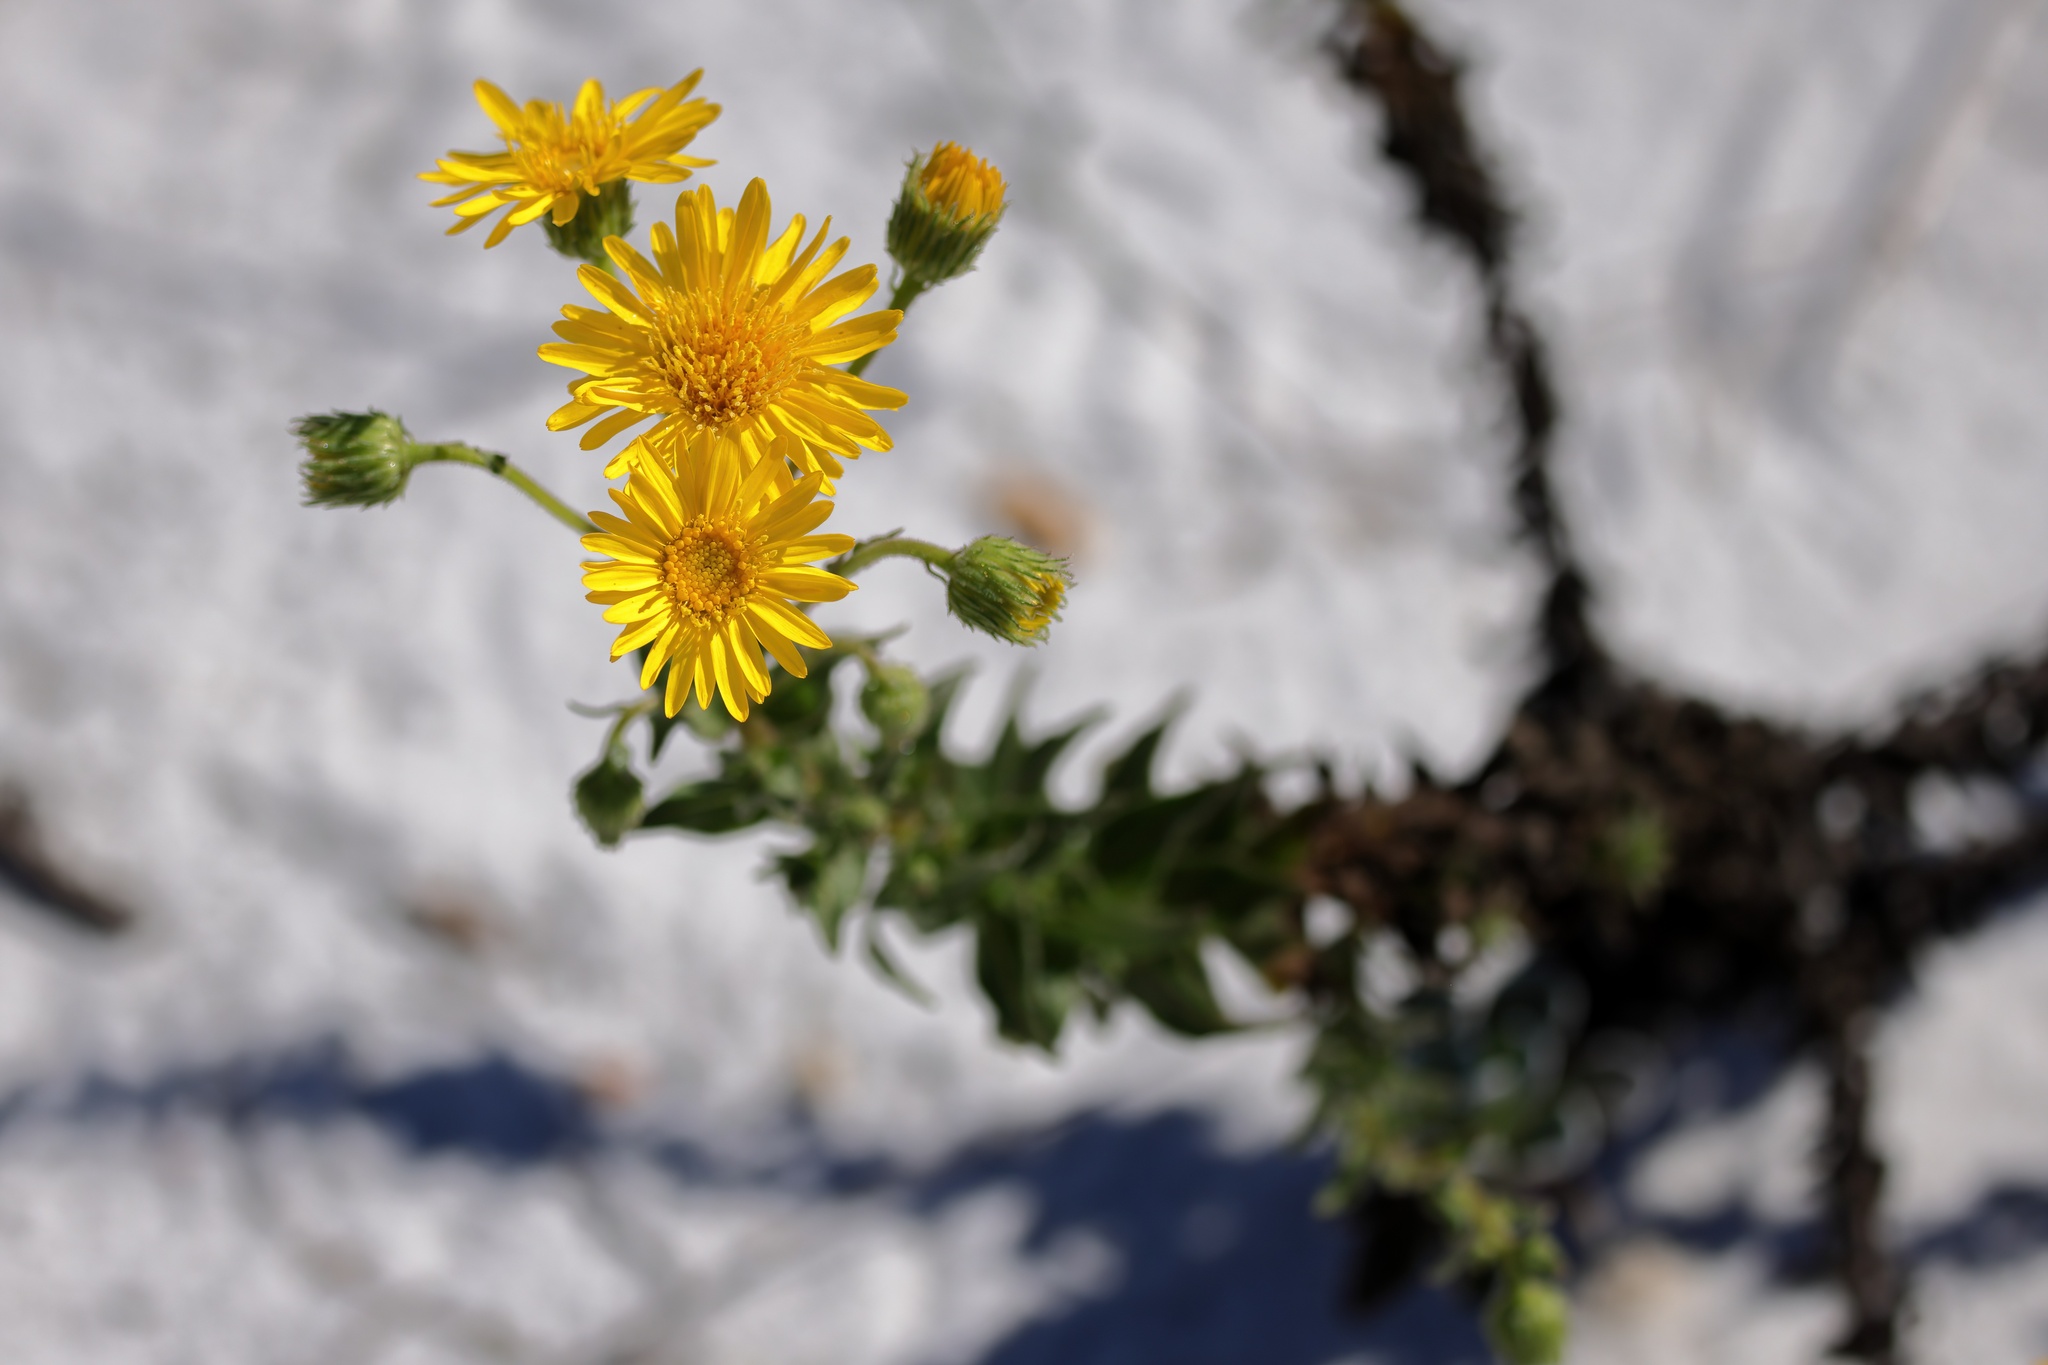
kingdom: Plantae
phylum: Tracheophyta
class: Magnoliopsida
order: Asterales
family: Asteraceae
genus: Chrysopsis
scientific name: Chrysopsis godfreyi
